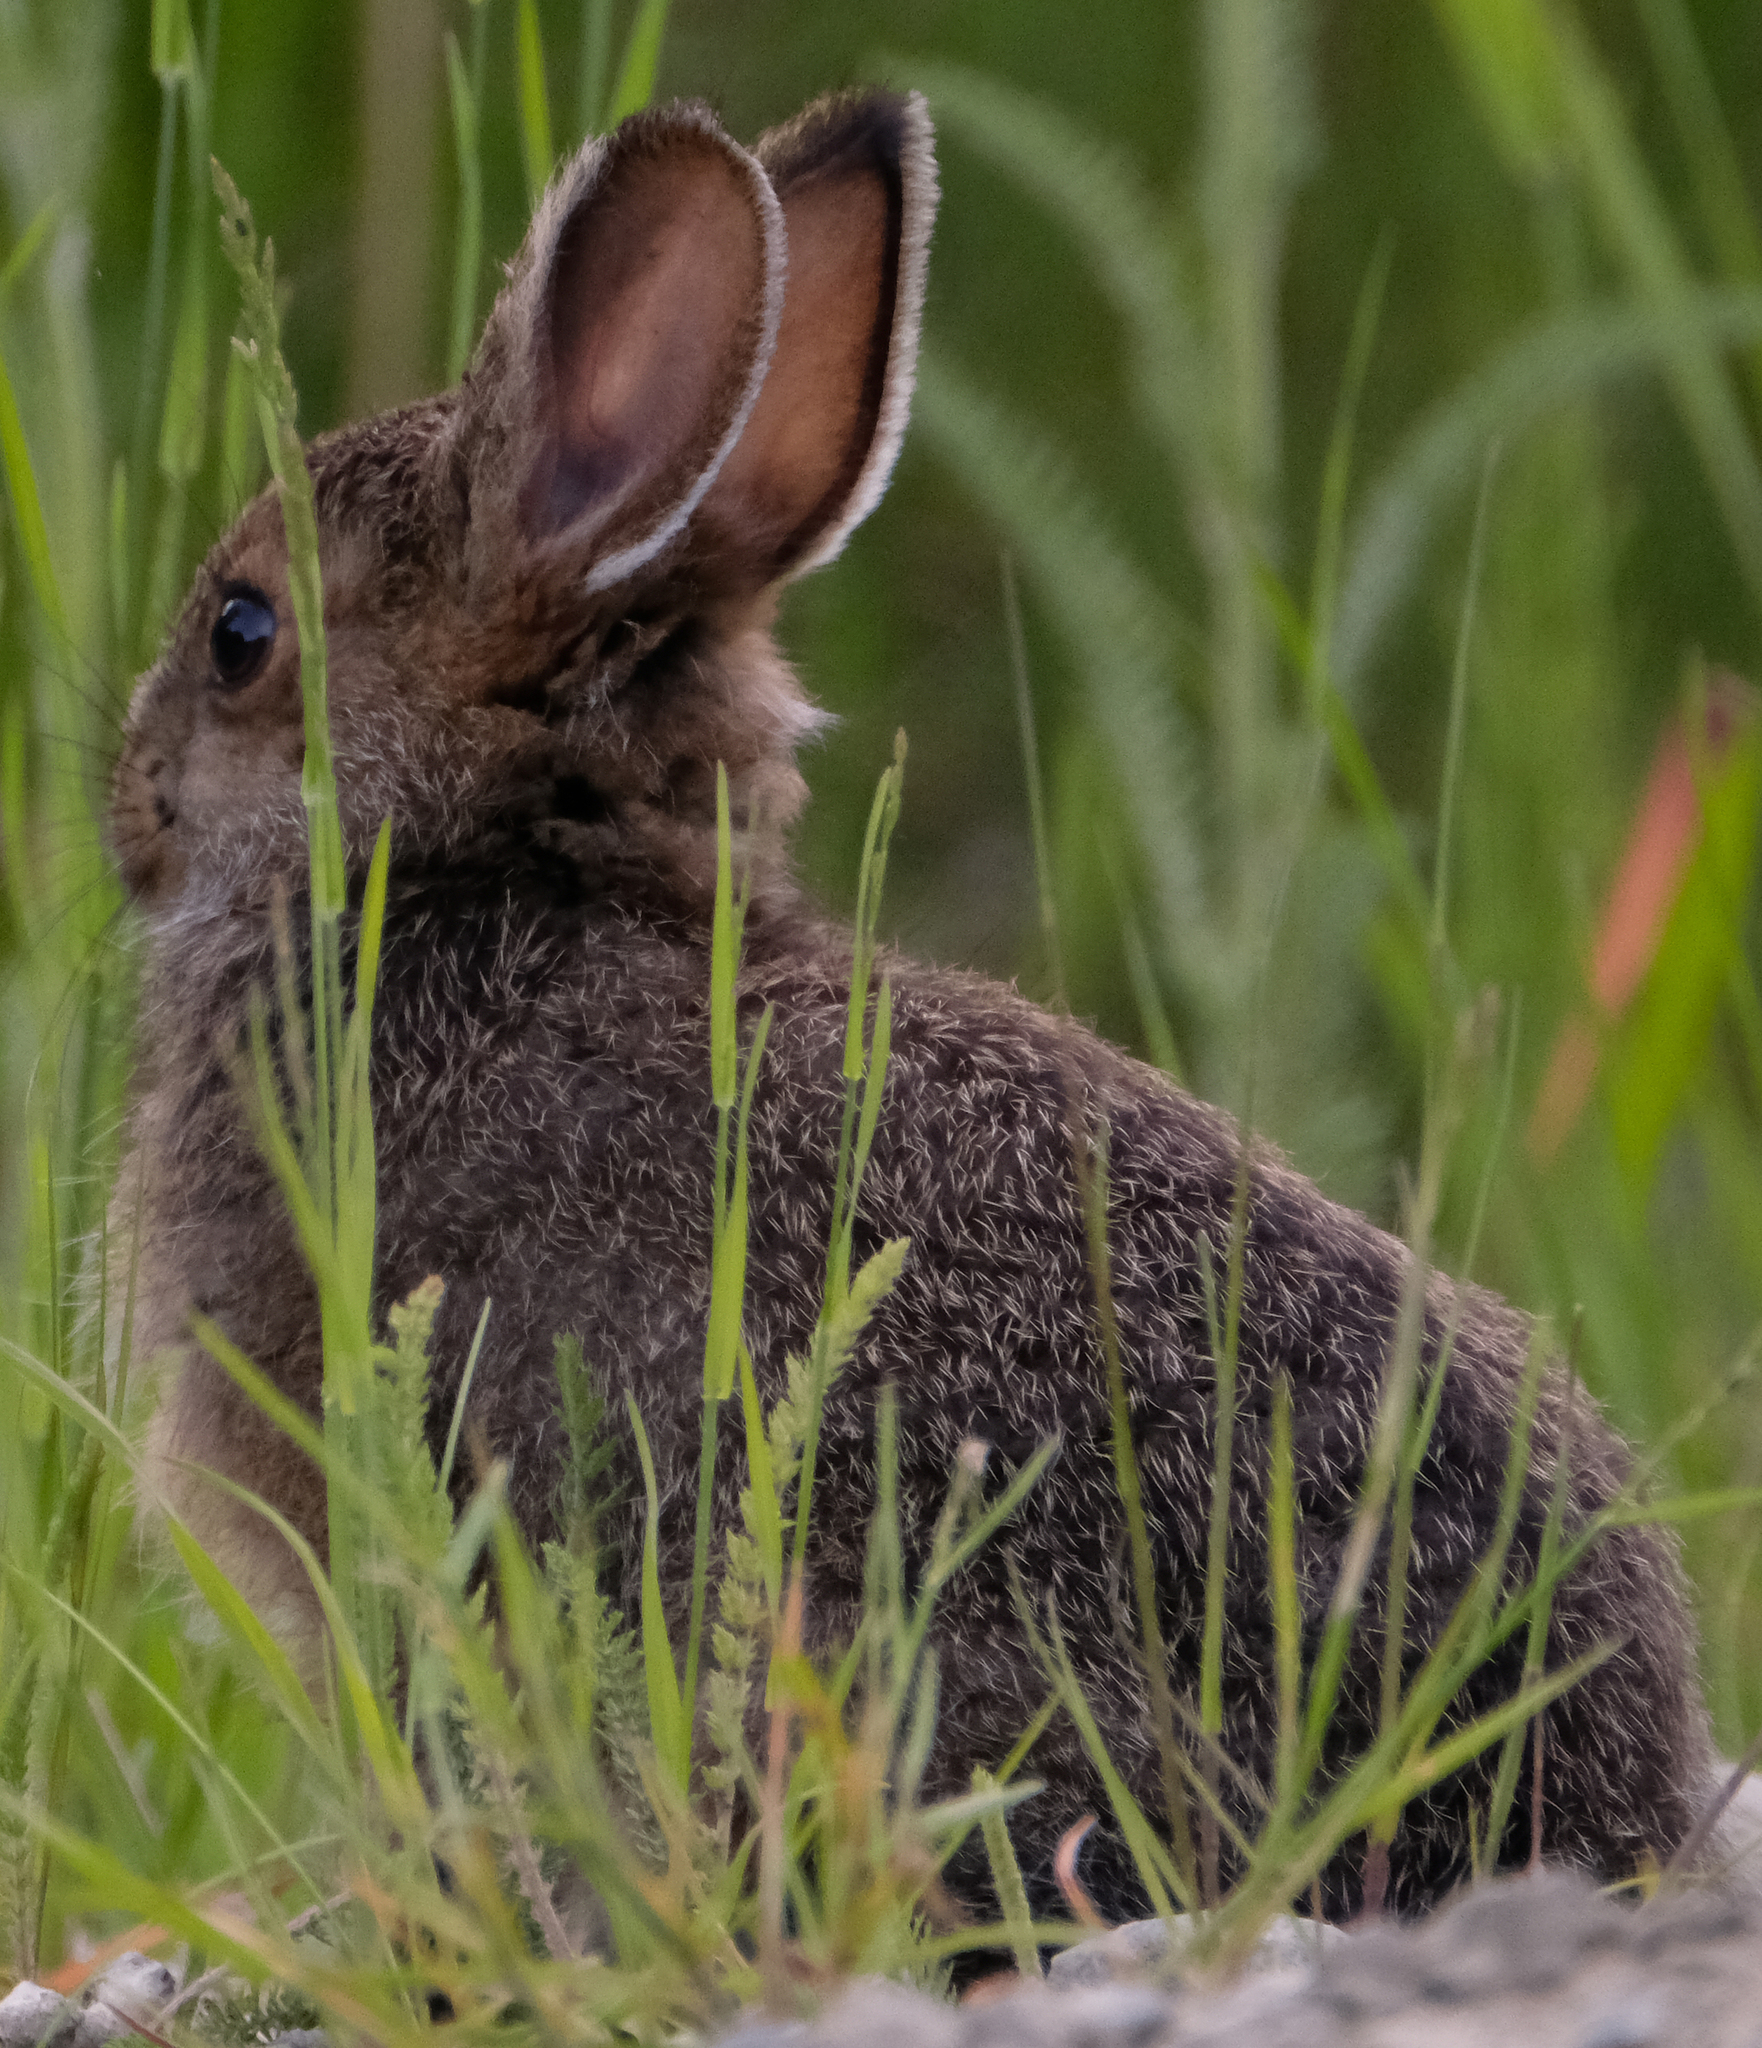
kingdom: Animalia
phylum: Chordata
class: Mammalia
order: Lagomorpha
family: Leporidae
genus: Lepus
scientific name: Lepus americanus
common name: Snowshoe hare
